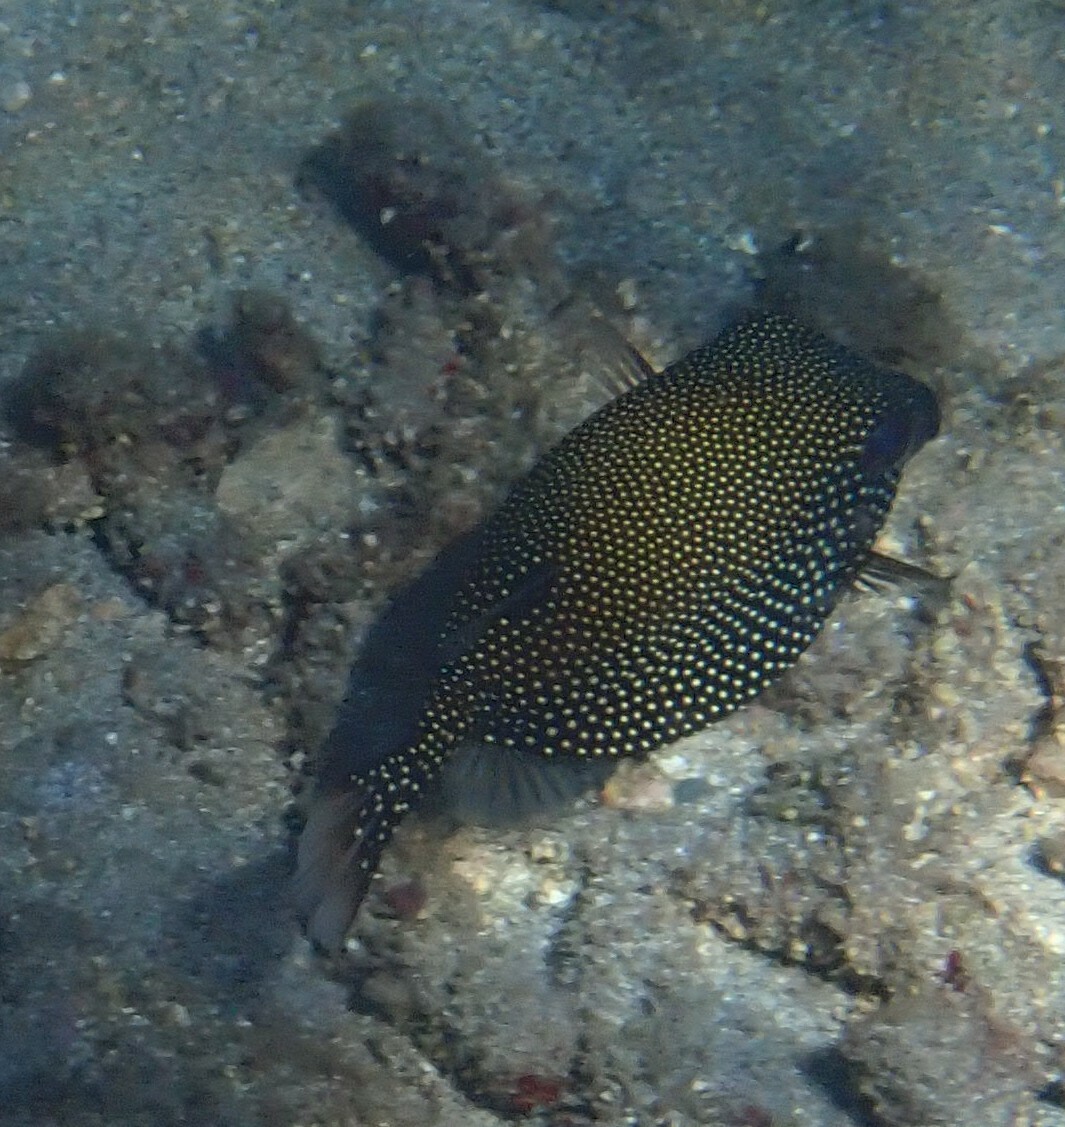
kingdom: Animalia
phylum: Chordata
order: Tetraodontiformes
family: Ostraciidae
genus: Ostracion
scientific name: Ostracion meleagris
